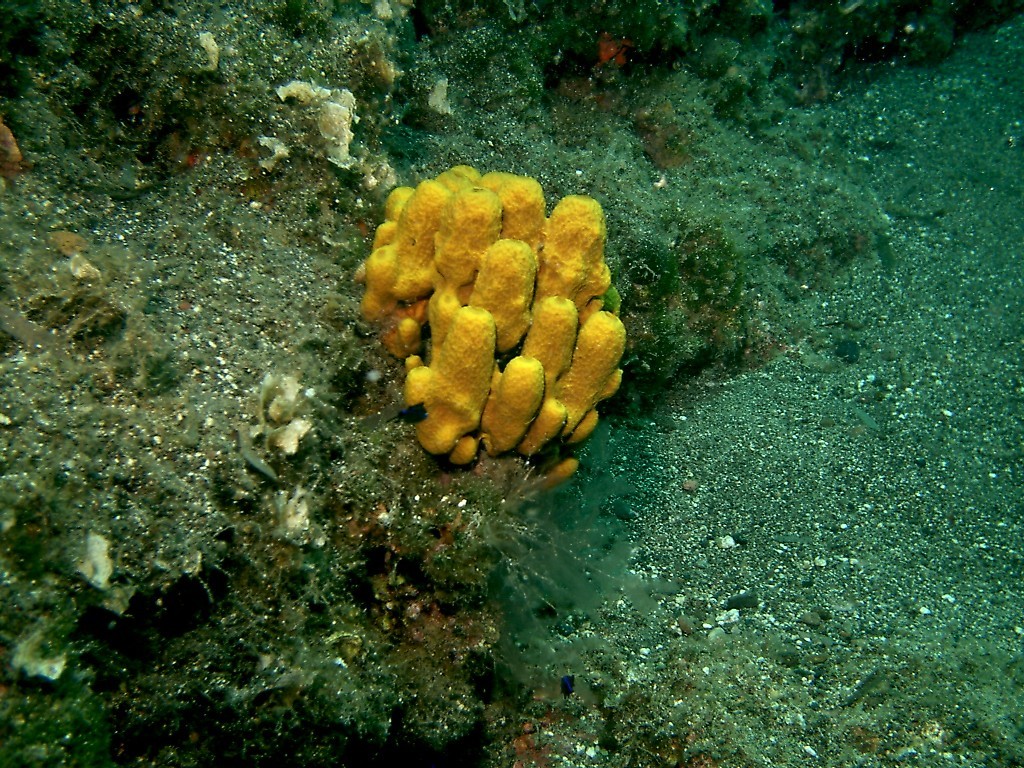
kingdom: Animalia
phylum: Porifera
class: Demospongiae
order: Verongiida
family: Aplysinidae
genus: Aplysina
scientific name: Aplysina aerophoba
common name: Aureate sponge
